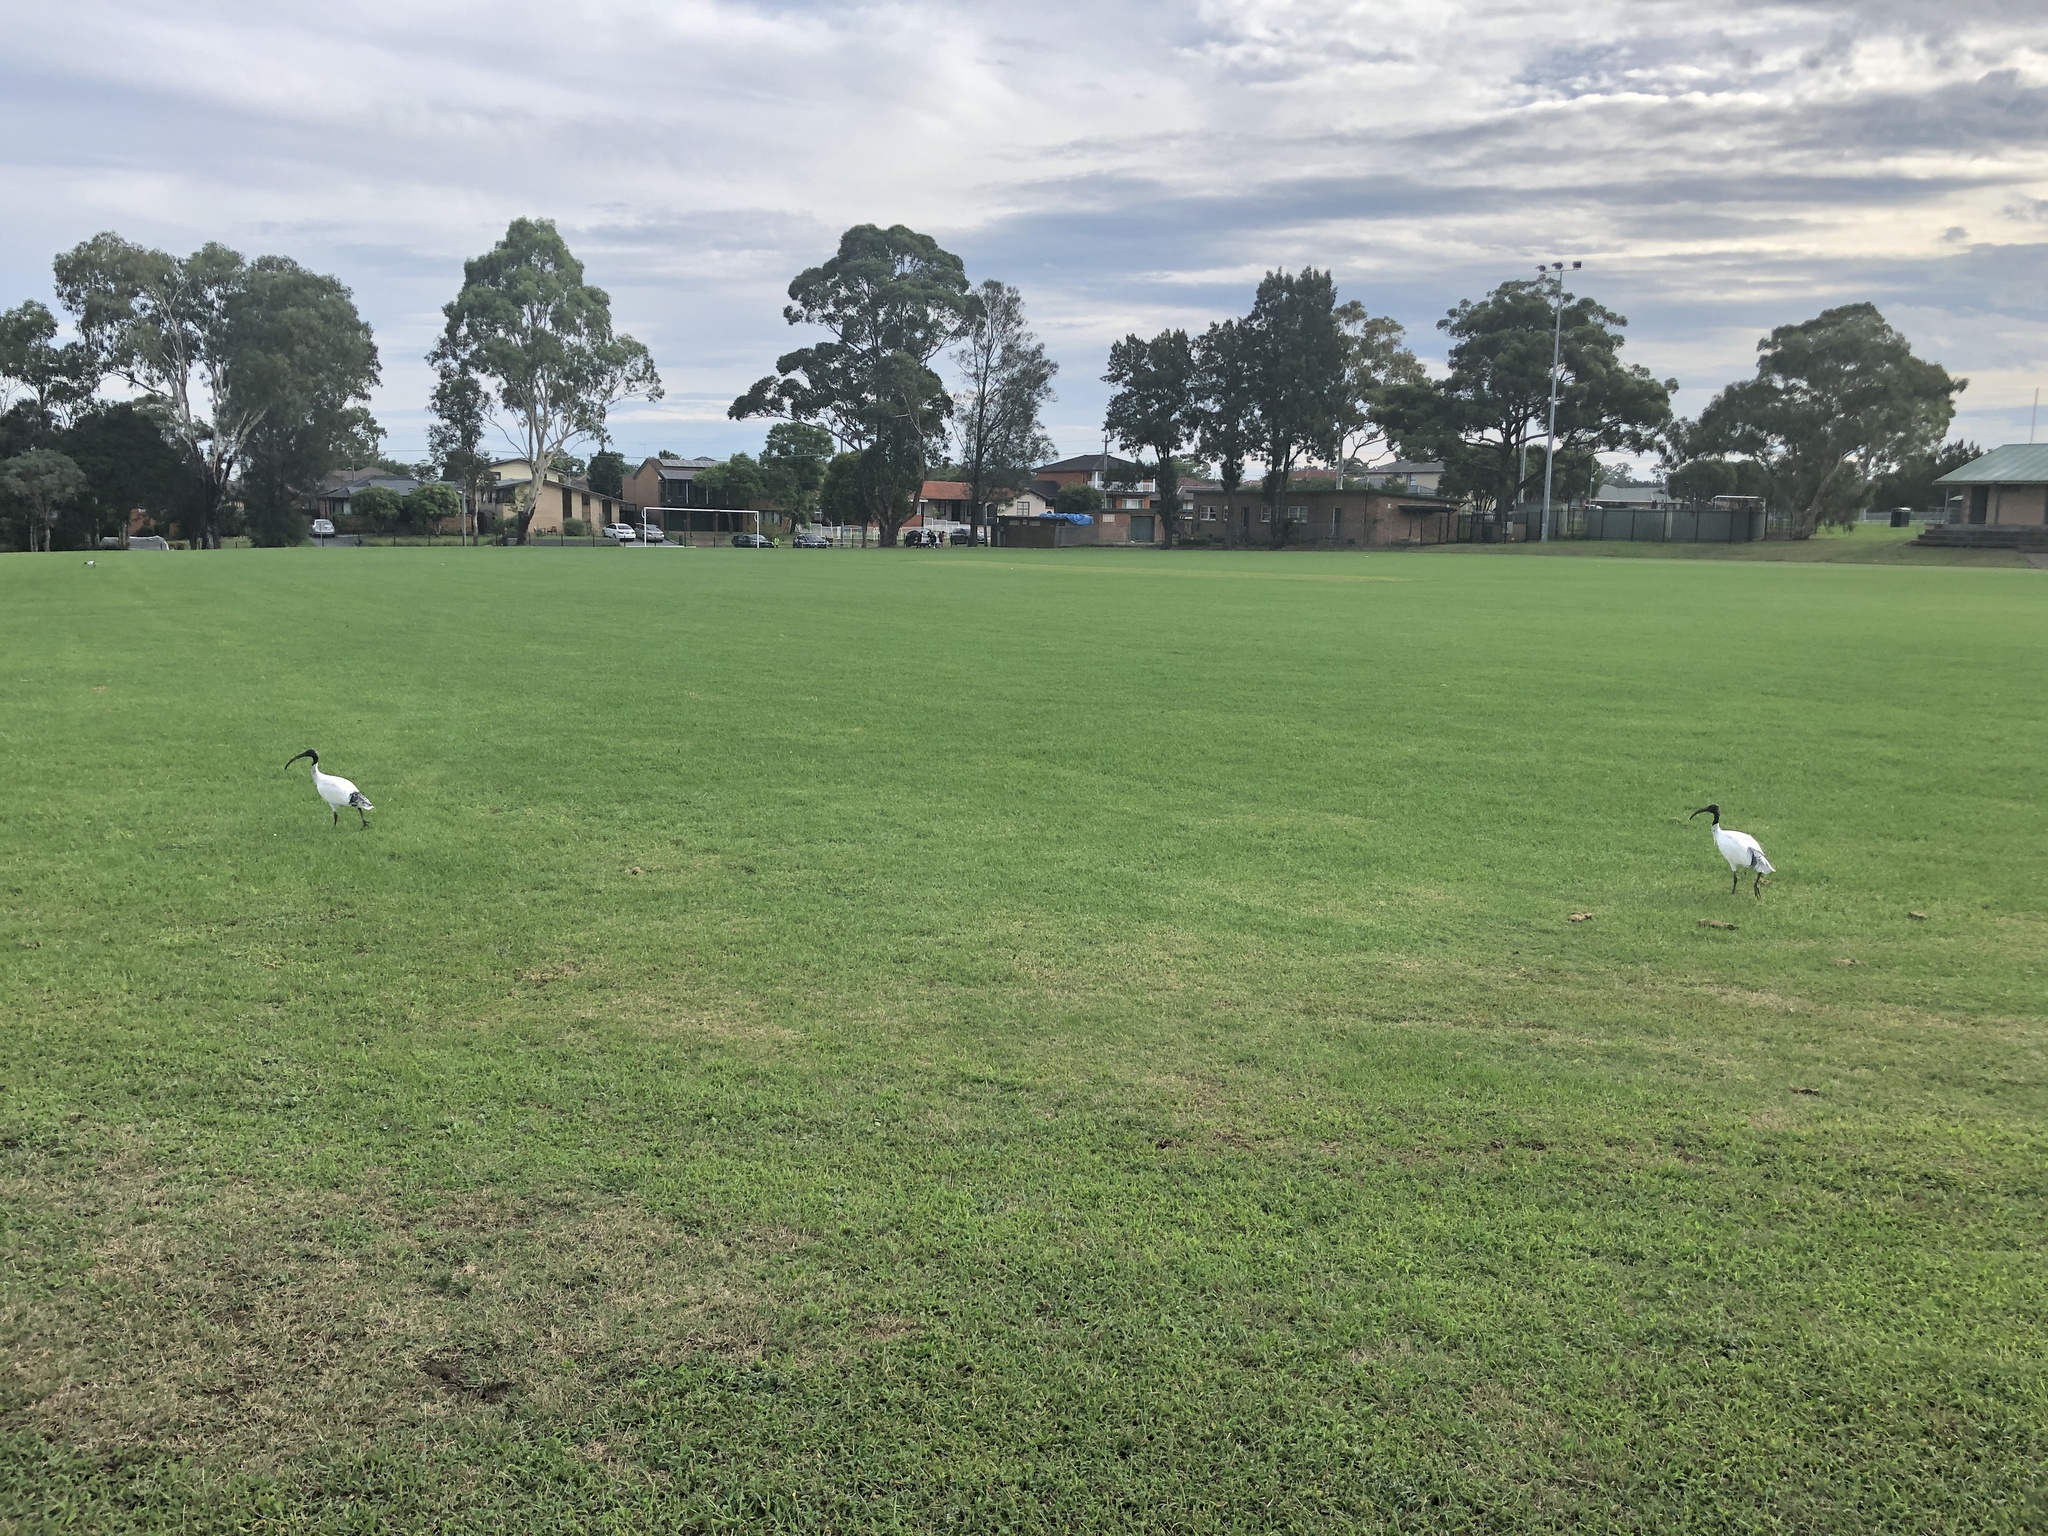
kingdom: Animalia
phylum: Chordata
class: Aves
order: Pelecaniformes
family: Threskiornithidae
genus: Threskiornis
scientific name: Threskiornis molucca
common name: Australian white ibis
